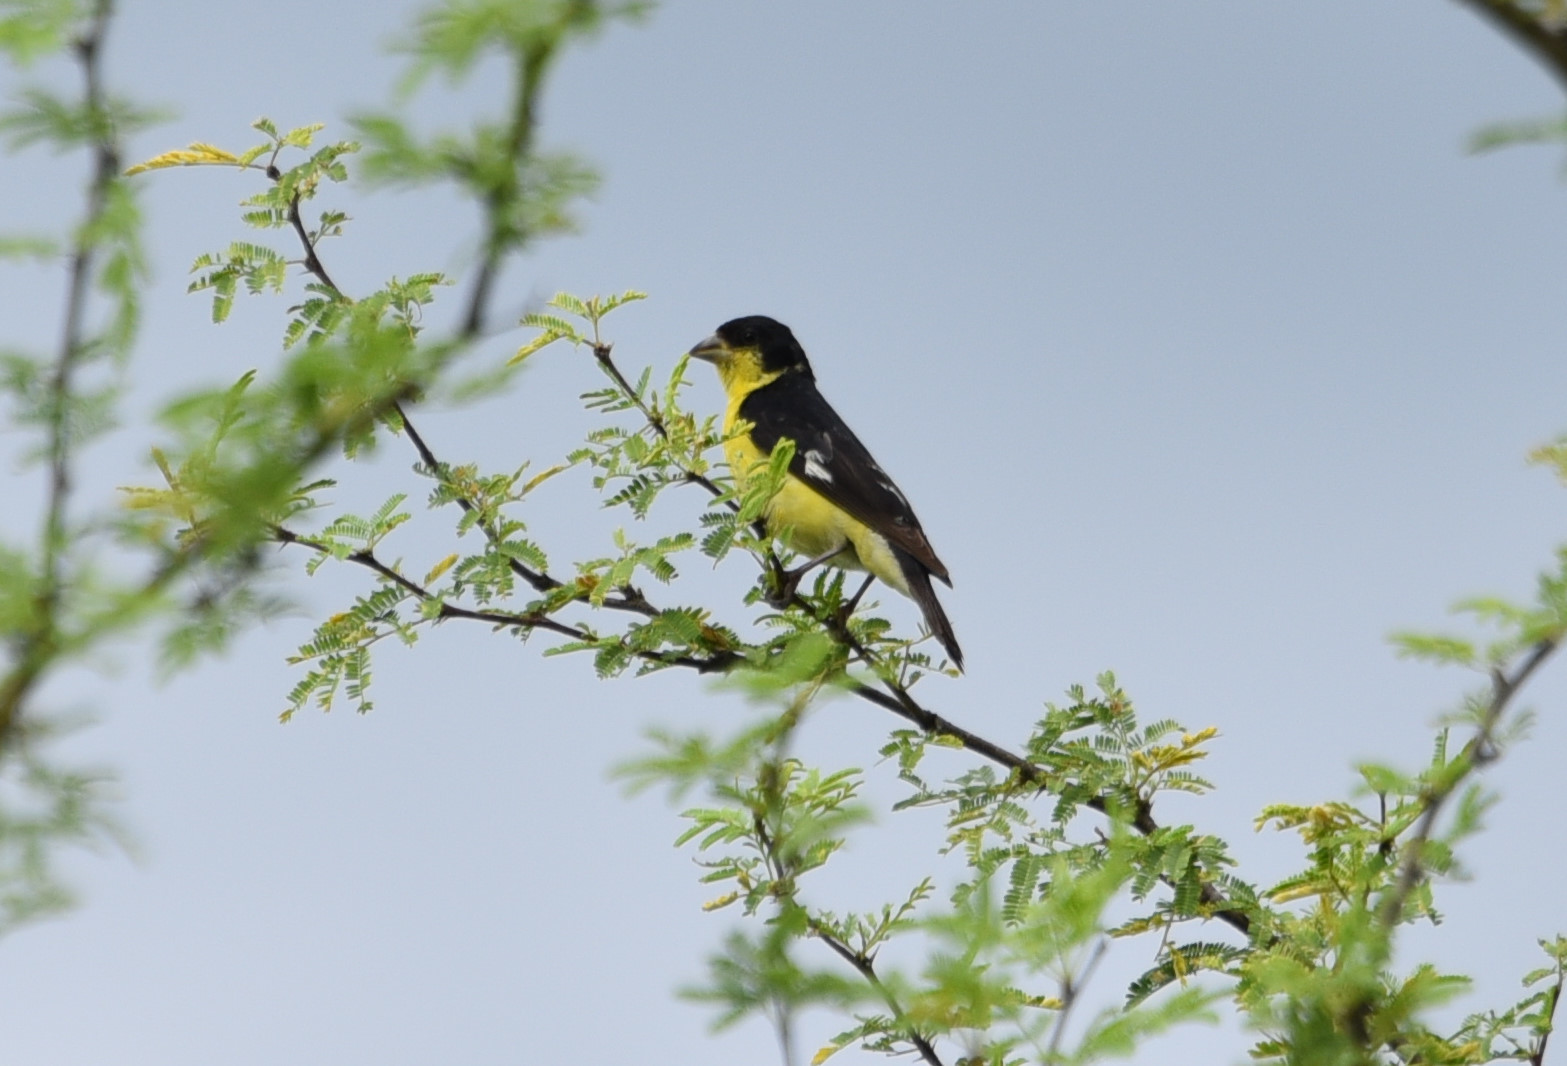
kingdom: Animalia
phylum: Chordata
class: Aves
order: Passeriformes
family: Fringillidae
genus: Spinus
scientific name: Spinus psaltria
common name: Lesser goldfinch
